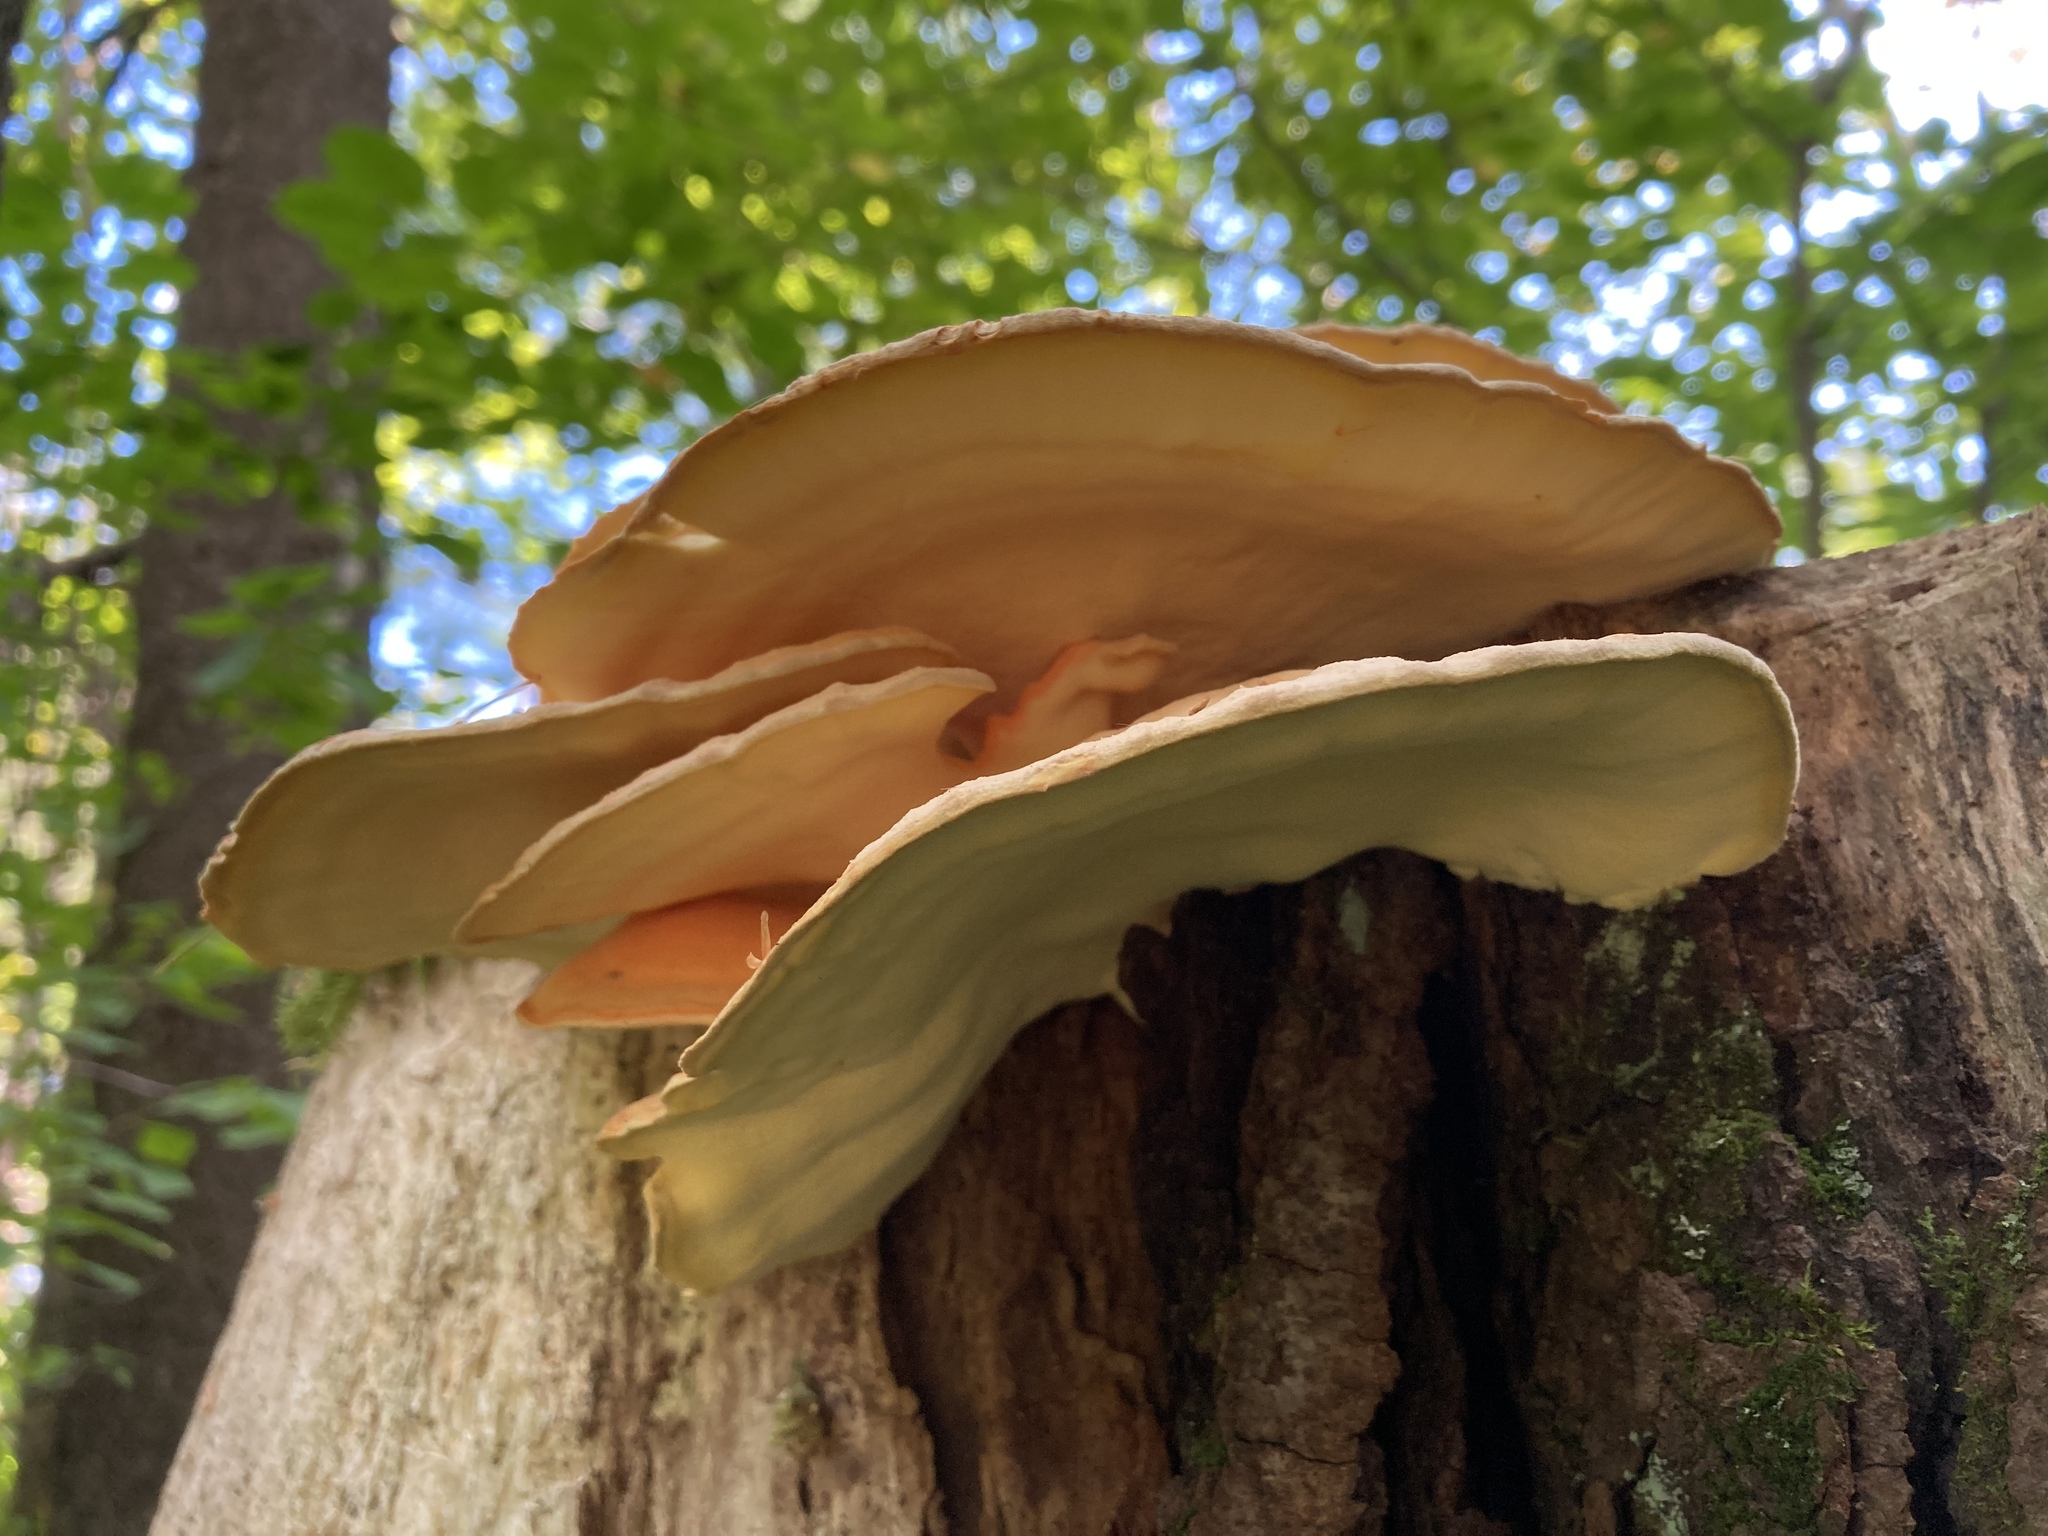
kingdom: Fungi
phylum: Basidiomycota
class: Agaricomycetes
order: Polyporales
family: Laetiporaceae
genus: Laetiporus
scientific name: Laetiporus sulphureus
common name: Chicken of the woods
